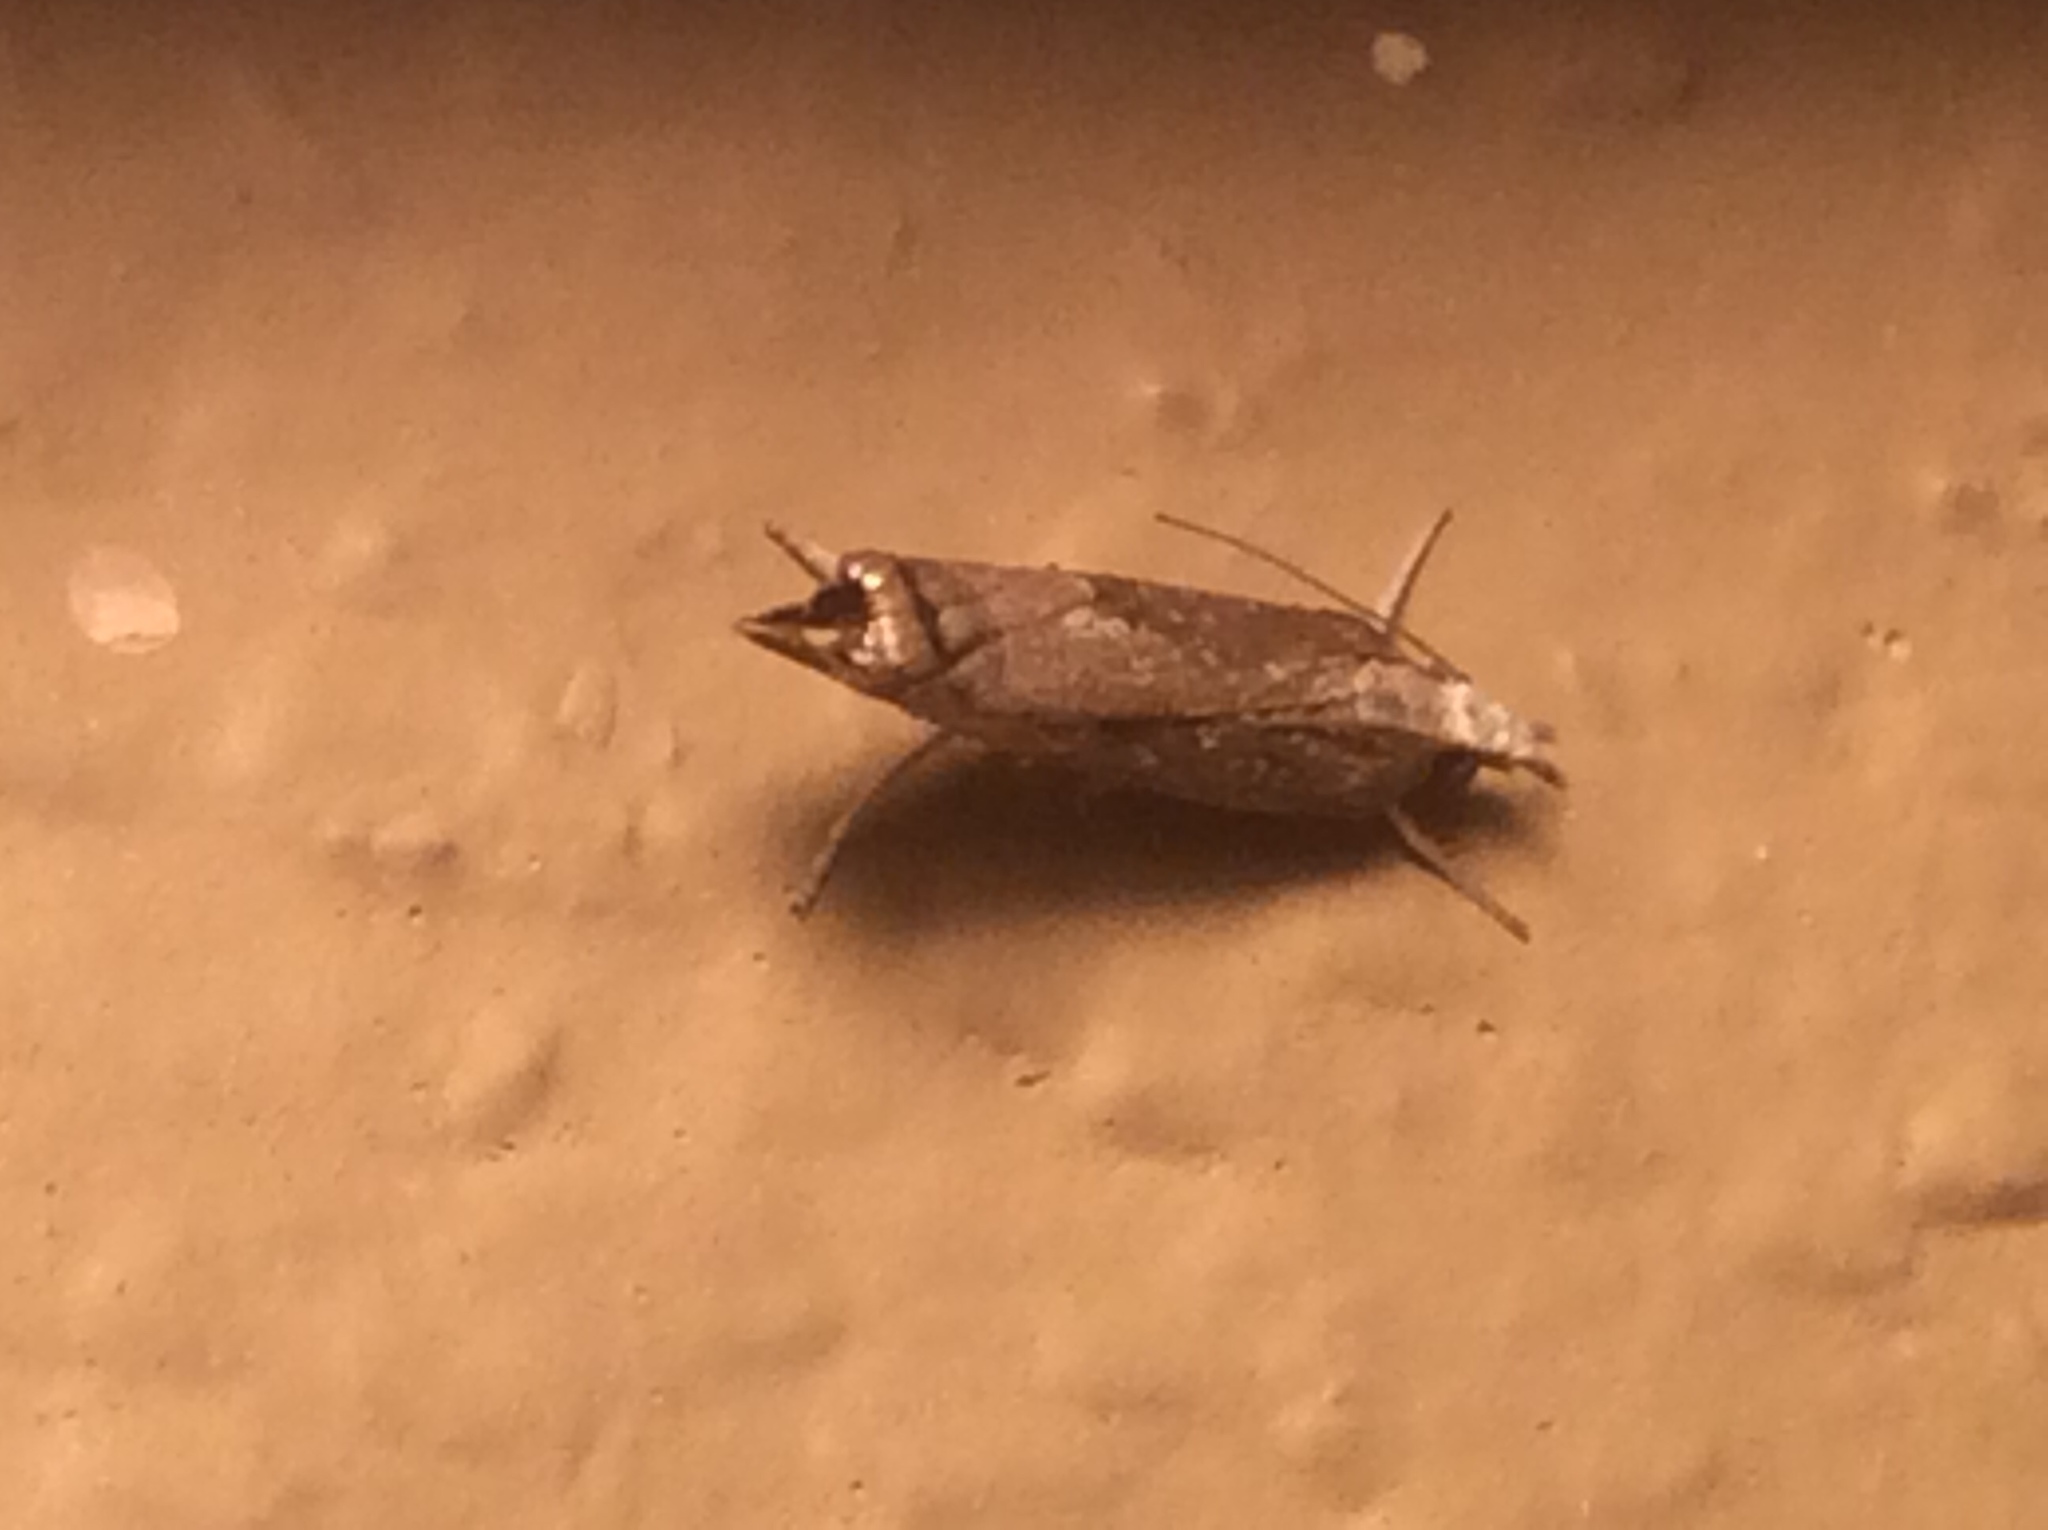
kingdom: Animalia
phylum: Arthropoda
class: Insecta
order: Lepidoptera
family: Crambidae
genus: Parapediasia
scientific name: Parapediasia teterellus
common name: Bluegrass webworm moth
